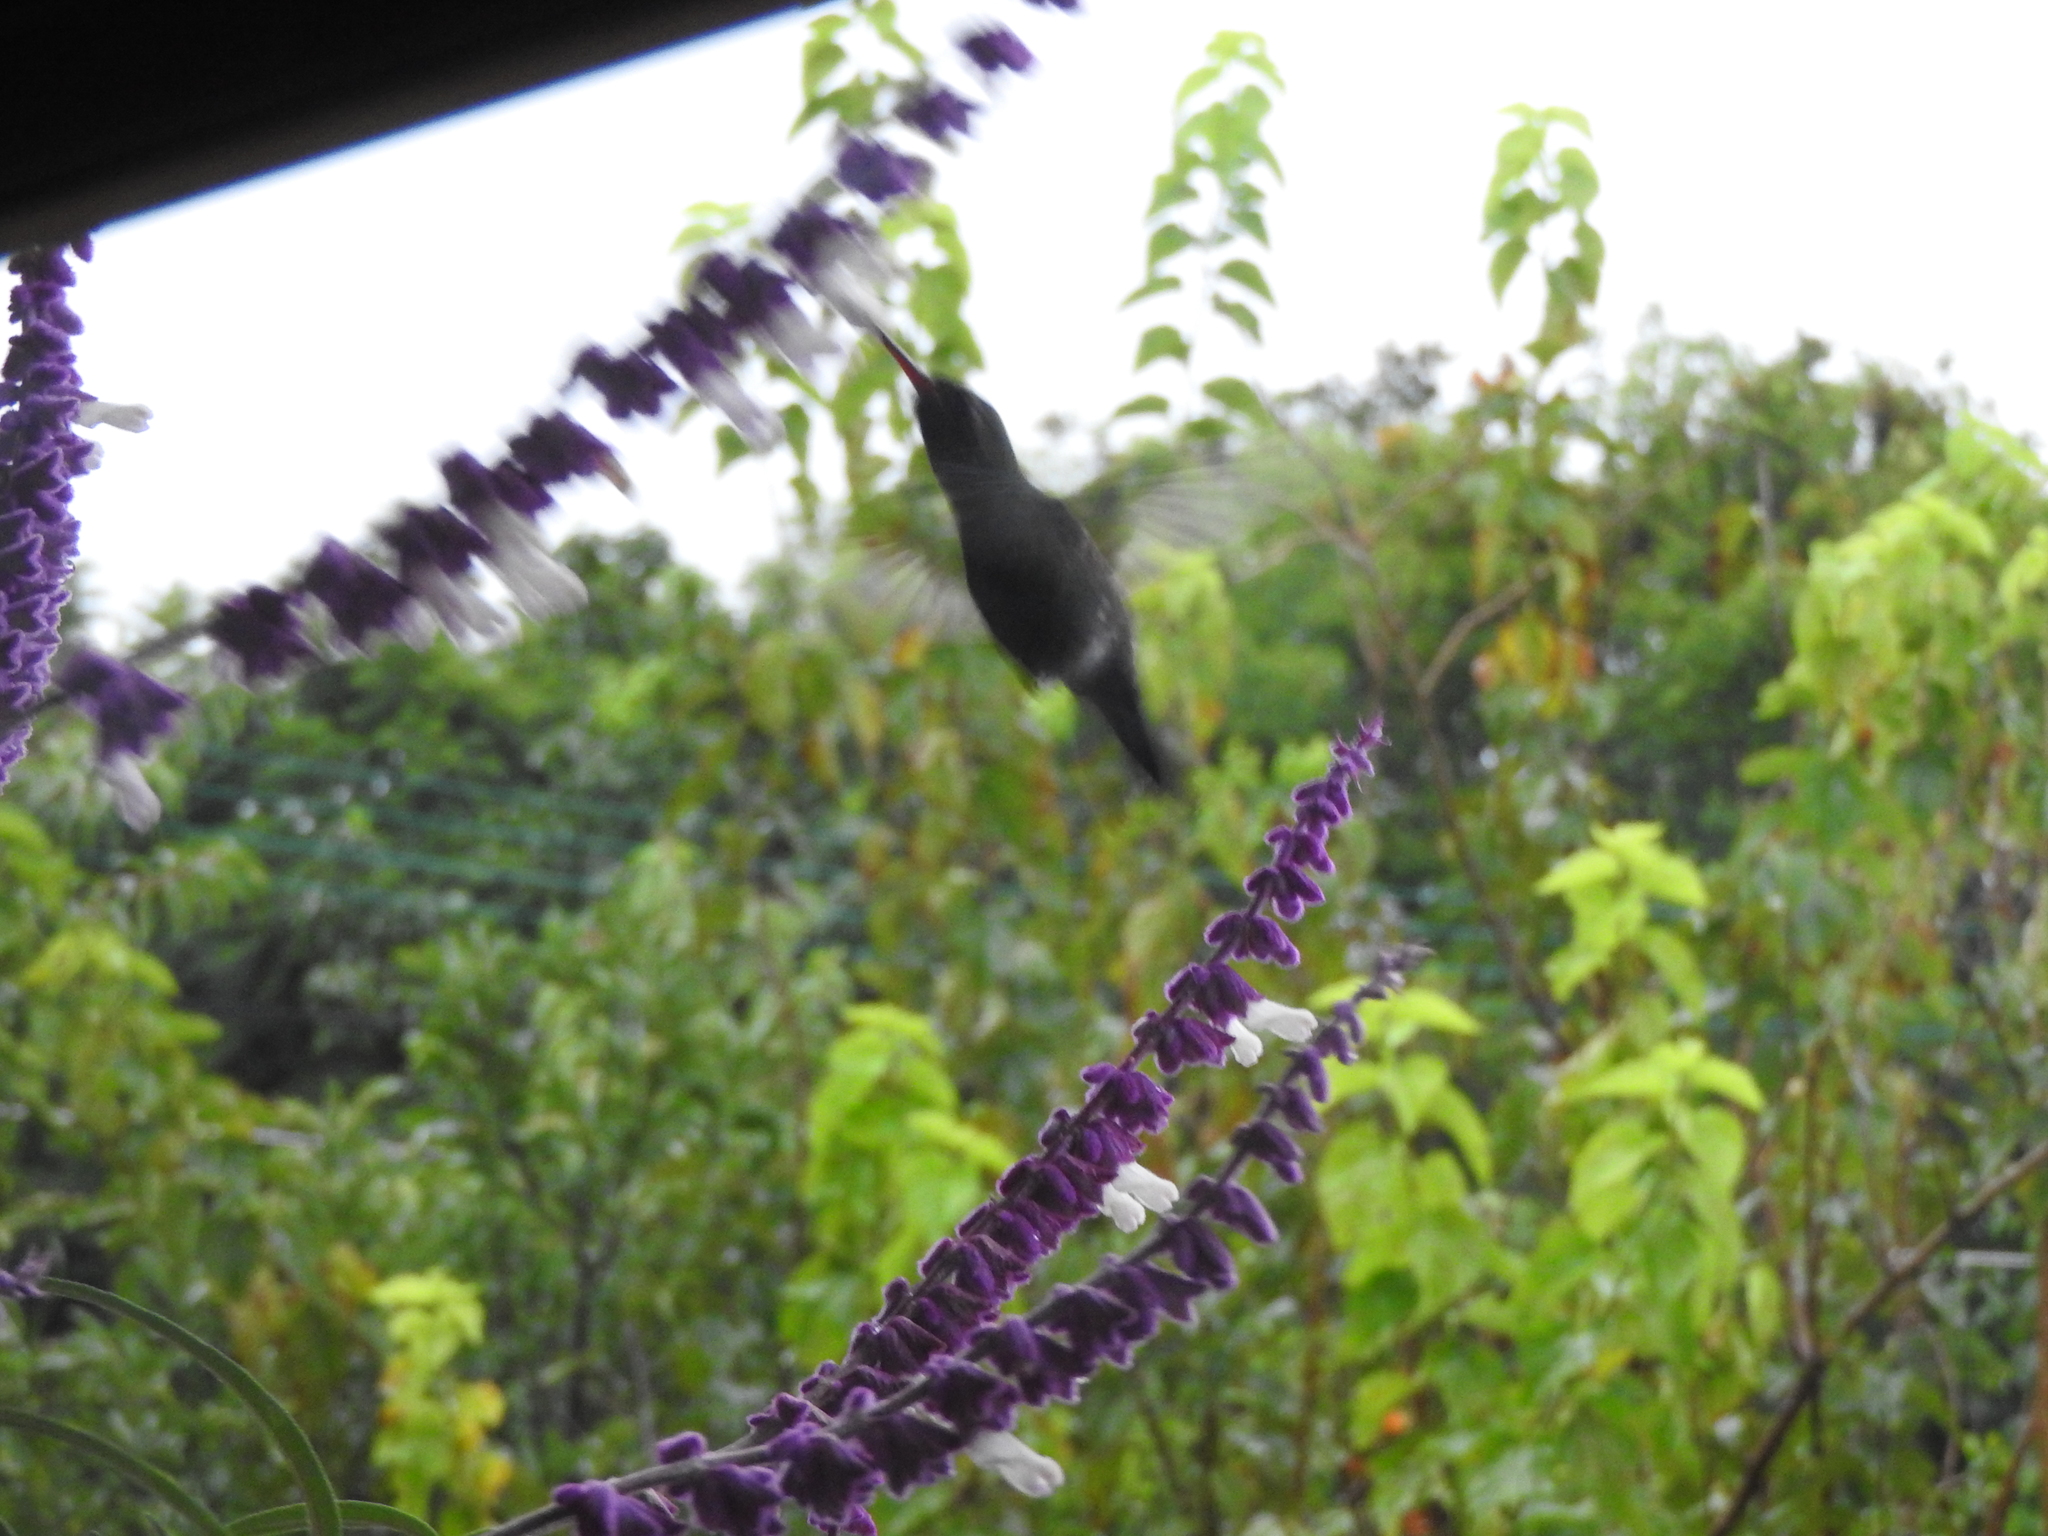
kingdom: Animalia
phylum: Chordata
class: Aves
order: Apodiformes
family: Trochilidae
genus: Cynanthus
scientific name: Cynanthus latirostris
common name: Broad-billed hummingbird
